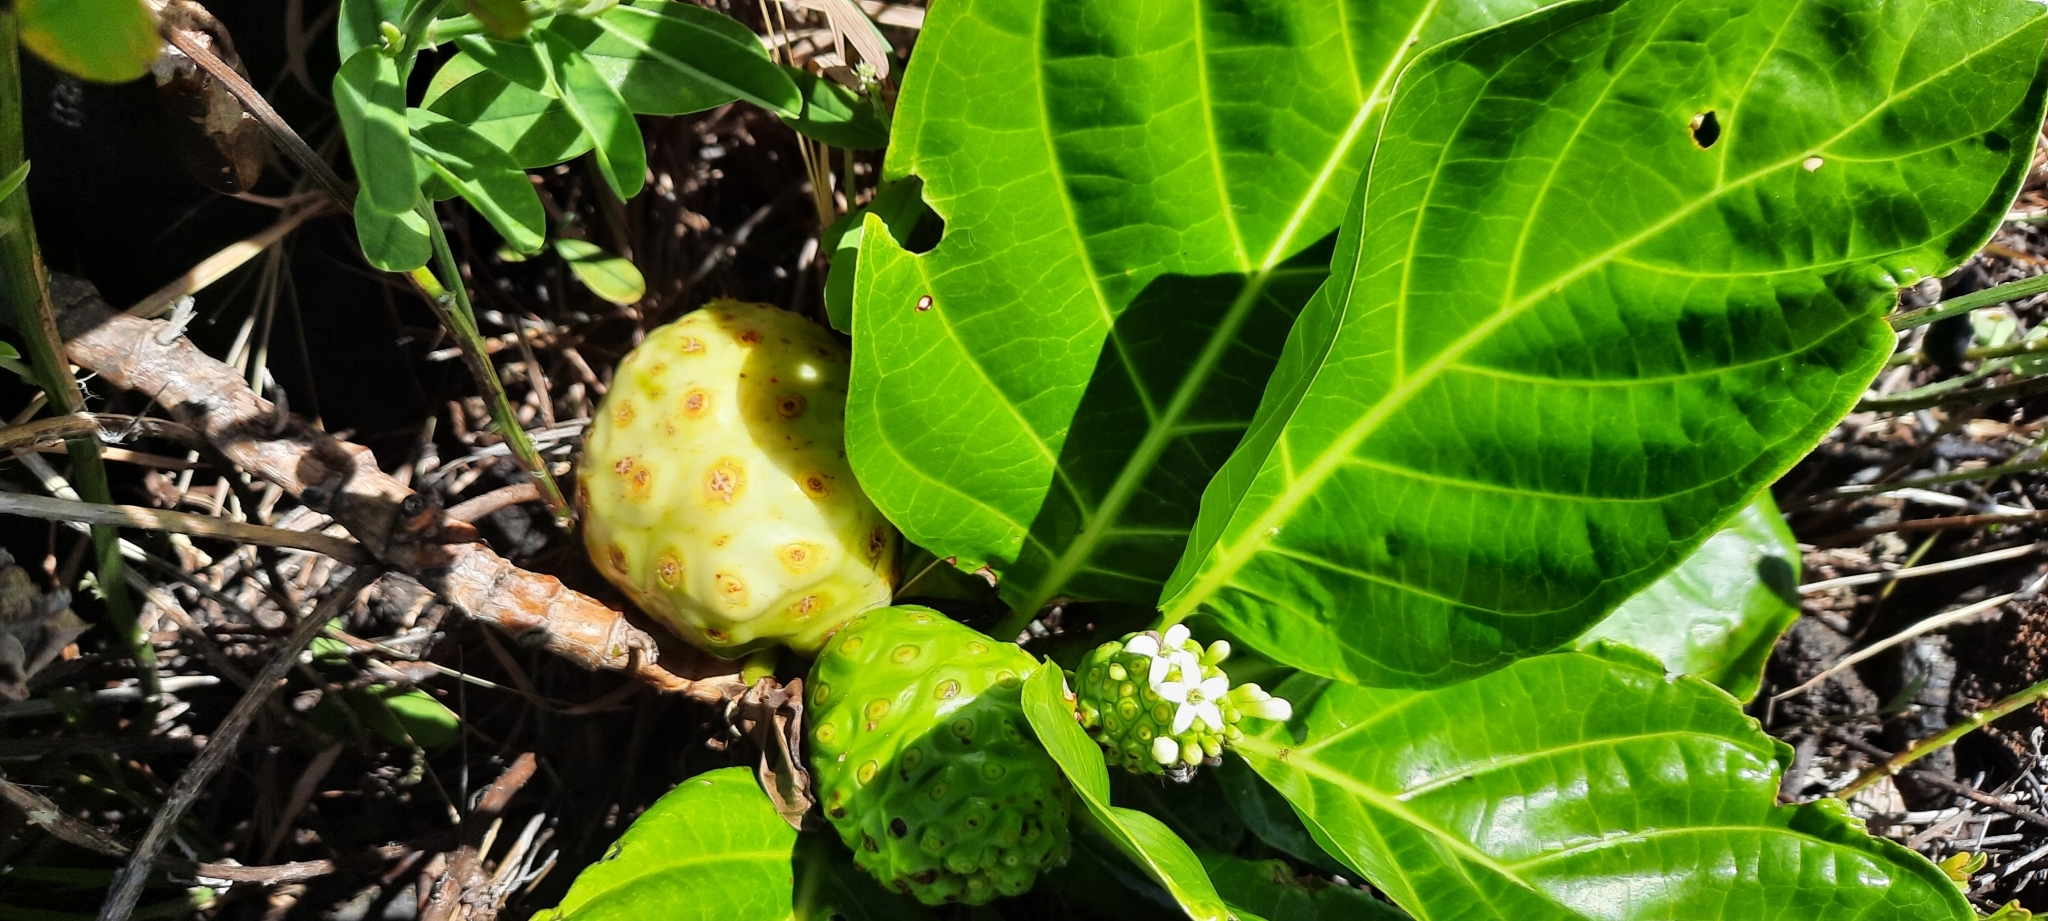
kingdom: Plantae
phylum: Tracheophyta
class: Magnoliopsida
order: Gentianales
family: Rubiaceae
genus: Morinda
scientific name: Morinda citrifolia
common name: Indian-mulberry
